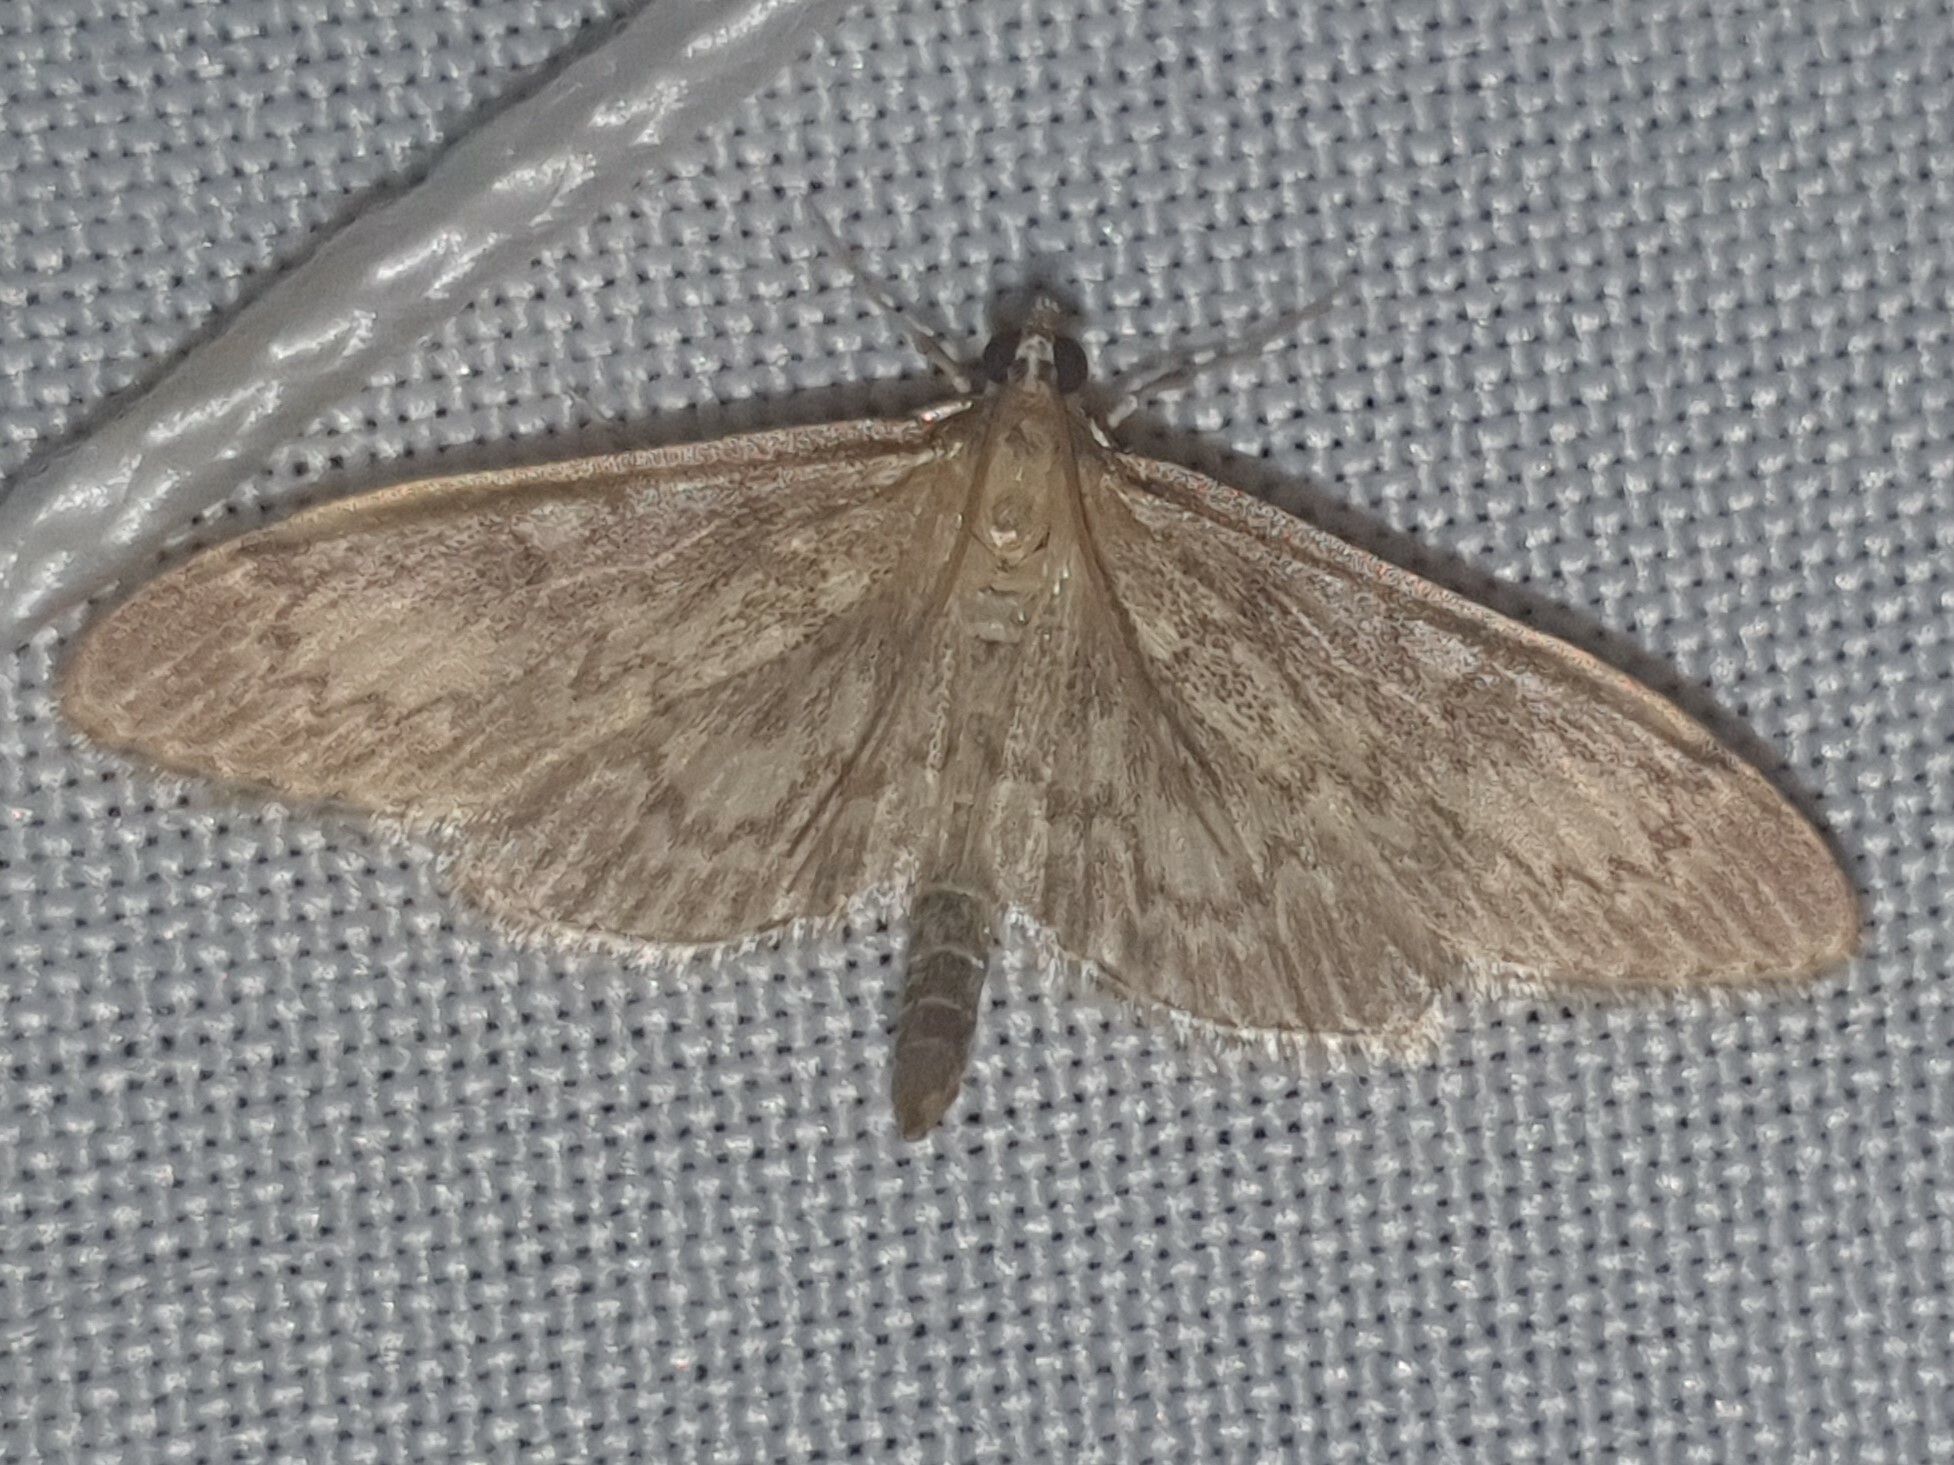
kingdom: Animalia
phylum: Arthropoda
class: Insecta
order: Lepidoptera
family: Crambidae
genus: Anania
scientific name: Anania lancealis
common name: Long-winged pearl
